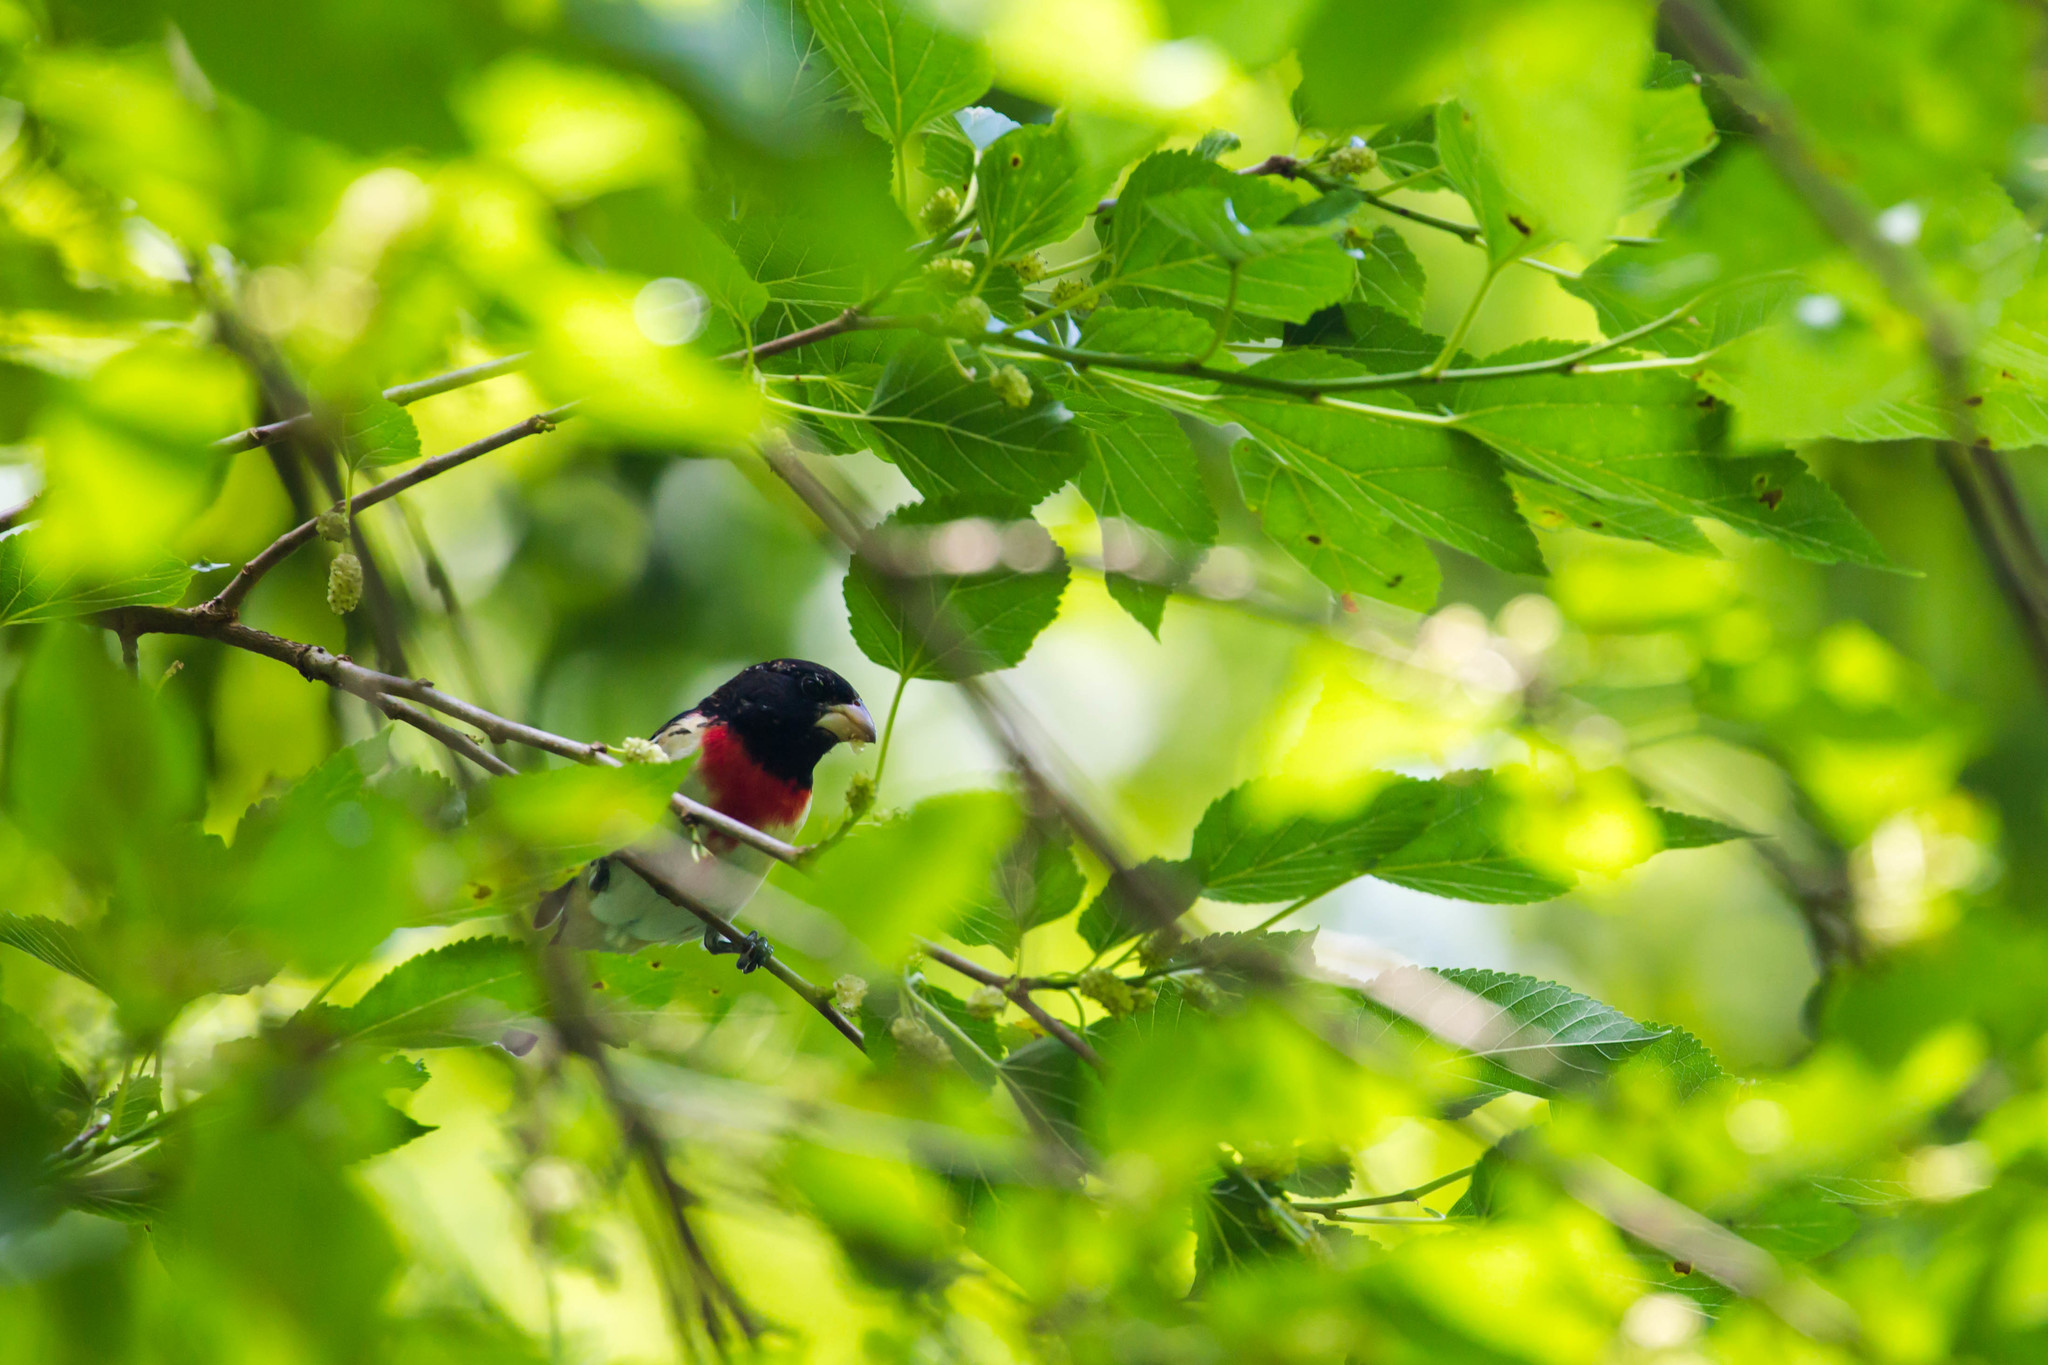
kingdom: Animalia
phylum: Chordata
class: Aves
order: Passeriformes
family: Cardinalidae
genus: Pheucticus
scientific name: Pheucticus ludovicianus
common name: Rose-breasted grosbeak
